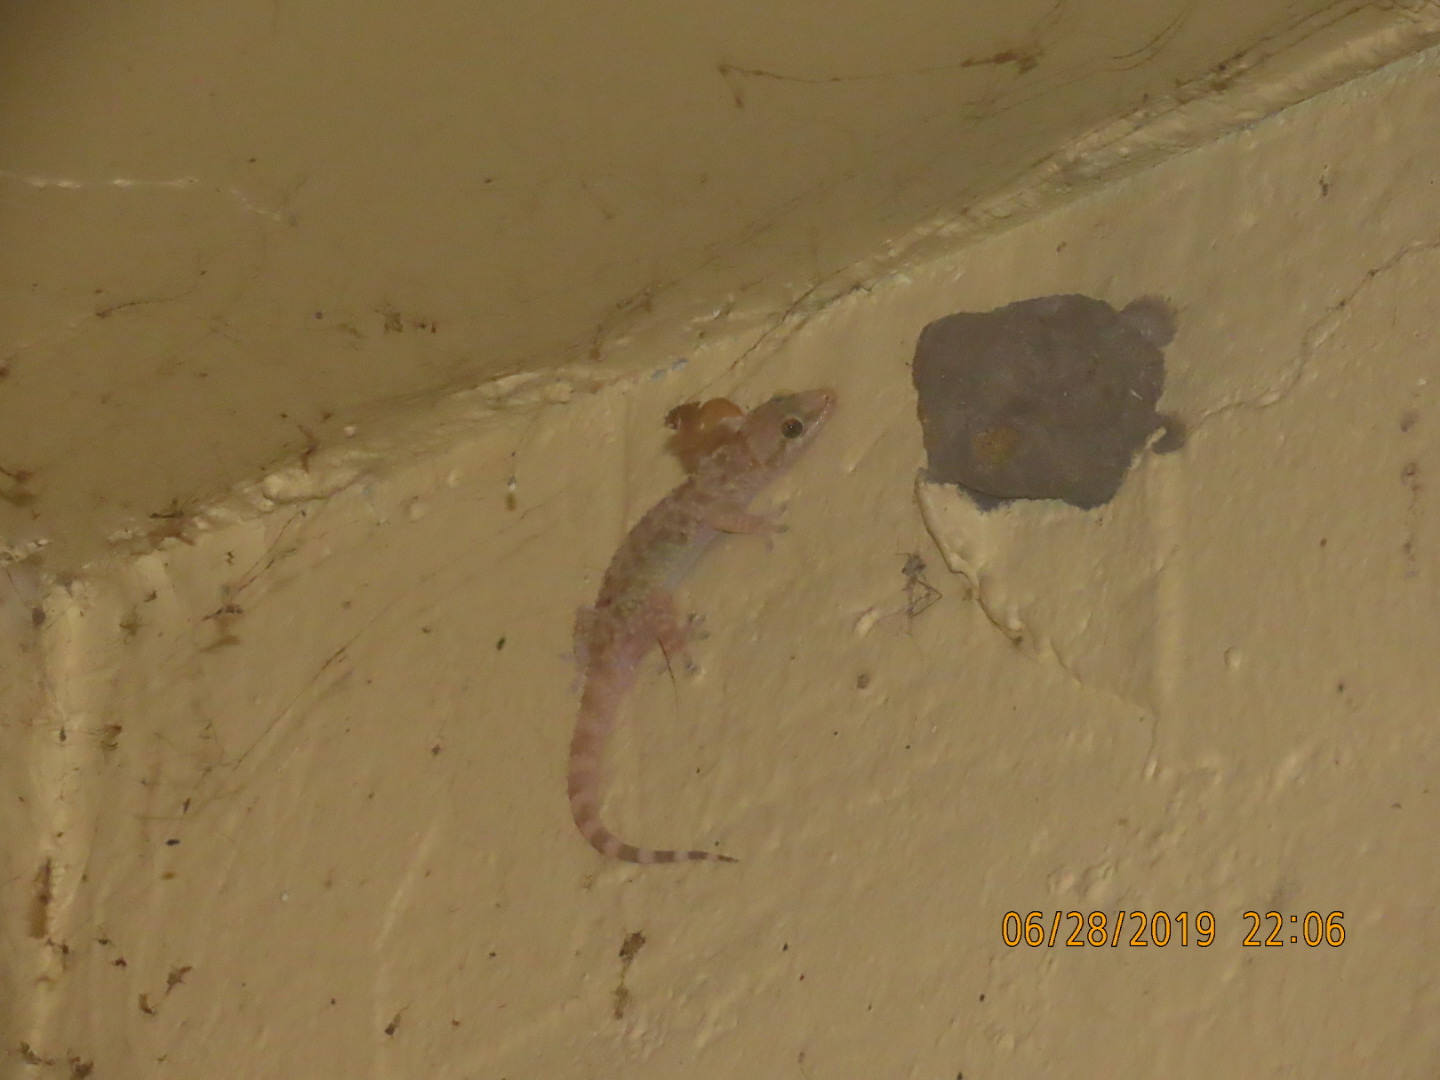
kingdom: Animalia
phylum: Chordata
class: Squamata
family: Gekkonidae
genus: Hemidactylus
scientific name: Hemidactylus turcicus
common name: Turkish gecko
